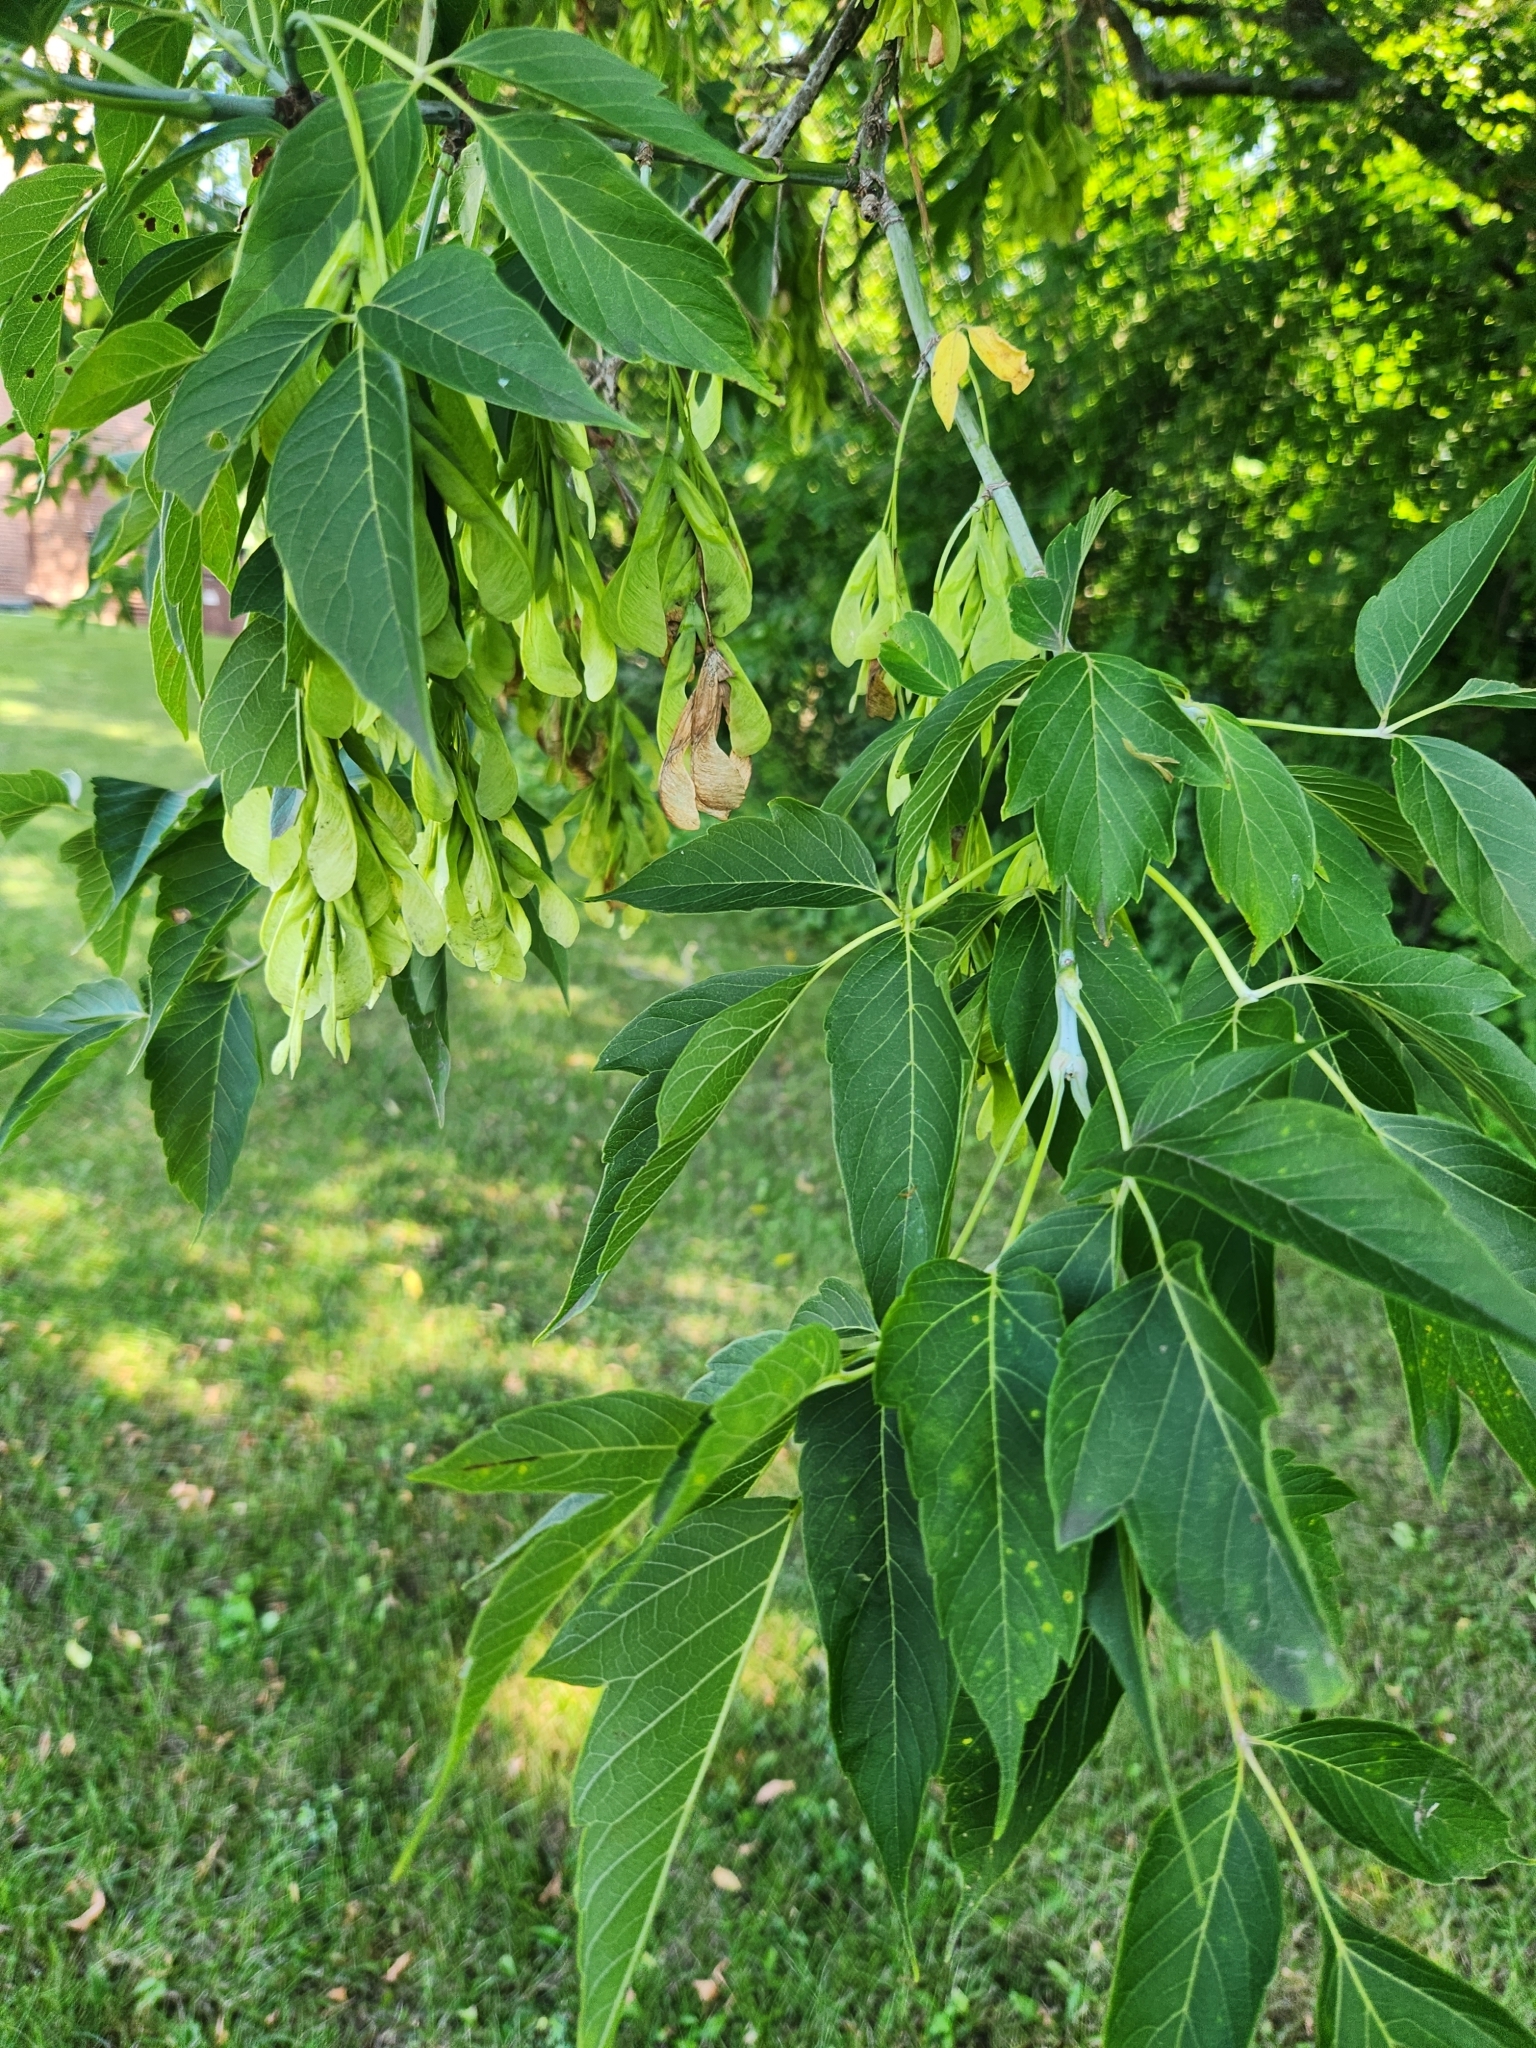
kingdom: Plantae
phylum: Tracheophyta
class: Magnoliopsida
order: Sapindales
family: Sapindaceae
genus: Acer
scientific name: Acer negundo
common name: Ashleaf maple
